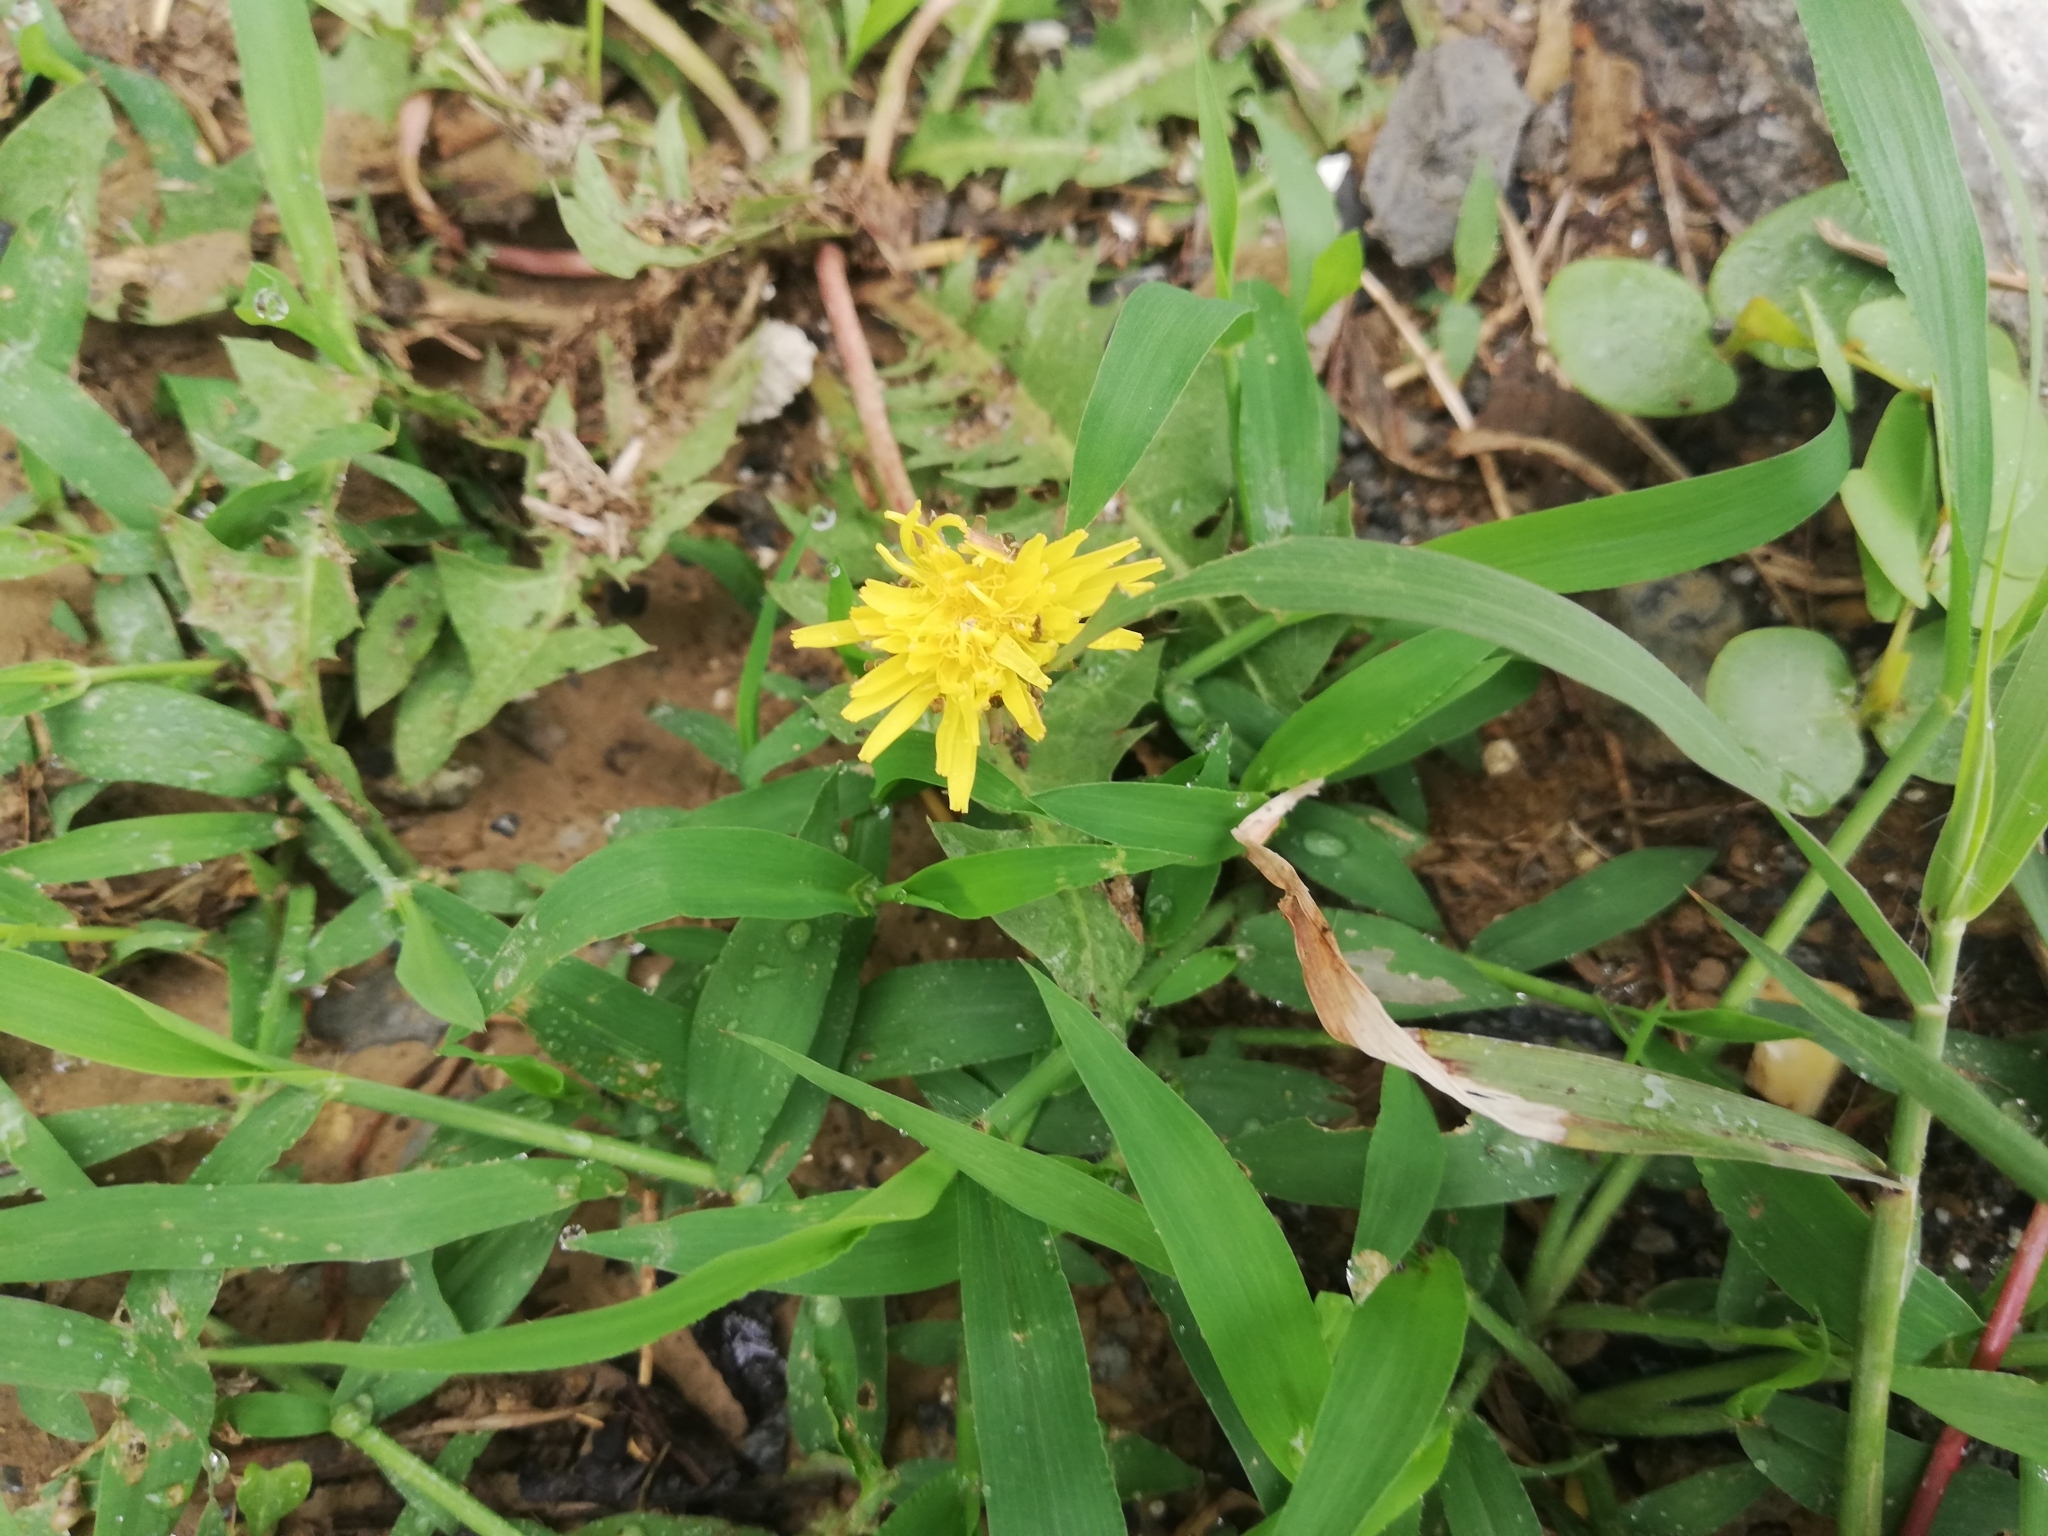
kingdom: Plantae
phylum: Tracheophyta
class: Magnoliopsida
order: Asterales
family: Asteraceae
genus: Taraxacum
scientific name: Taraxacum officinale
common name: Common dandelion
